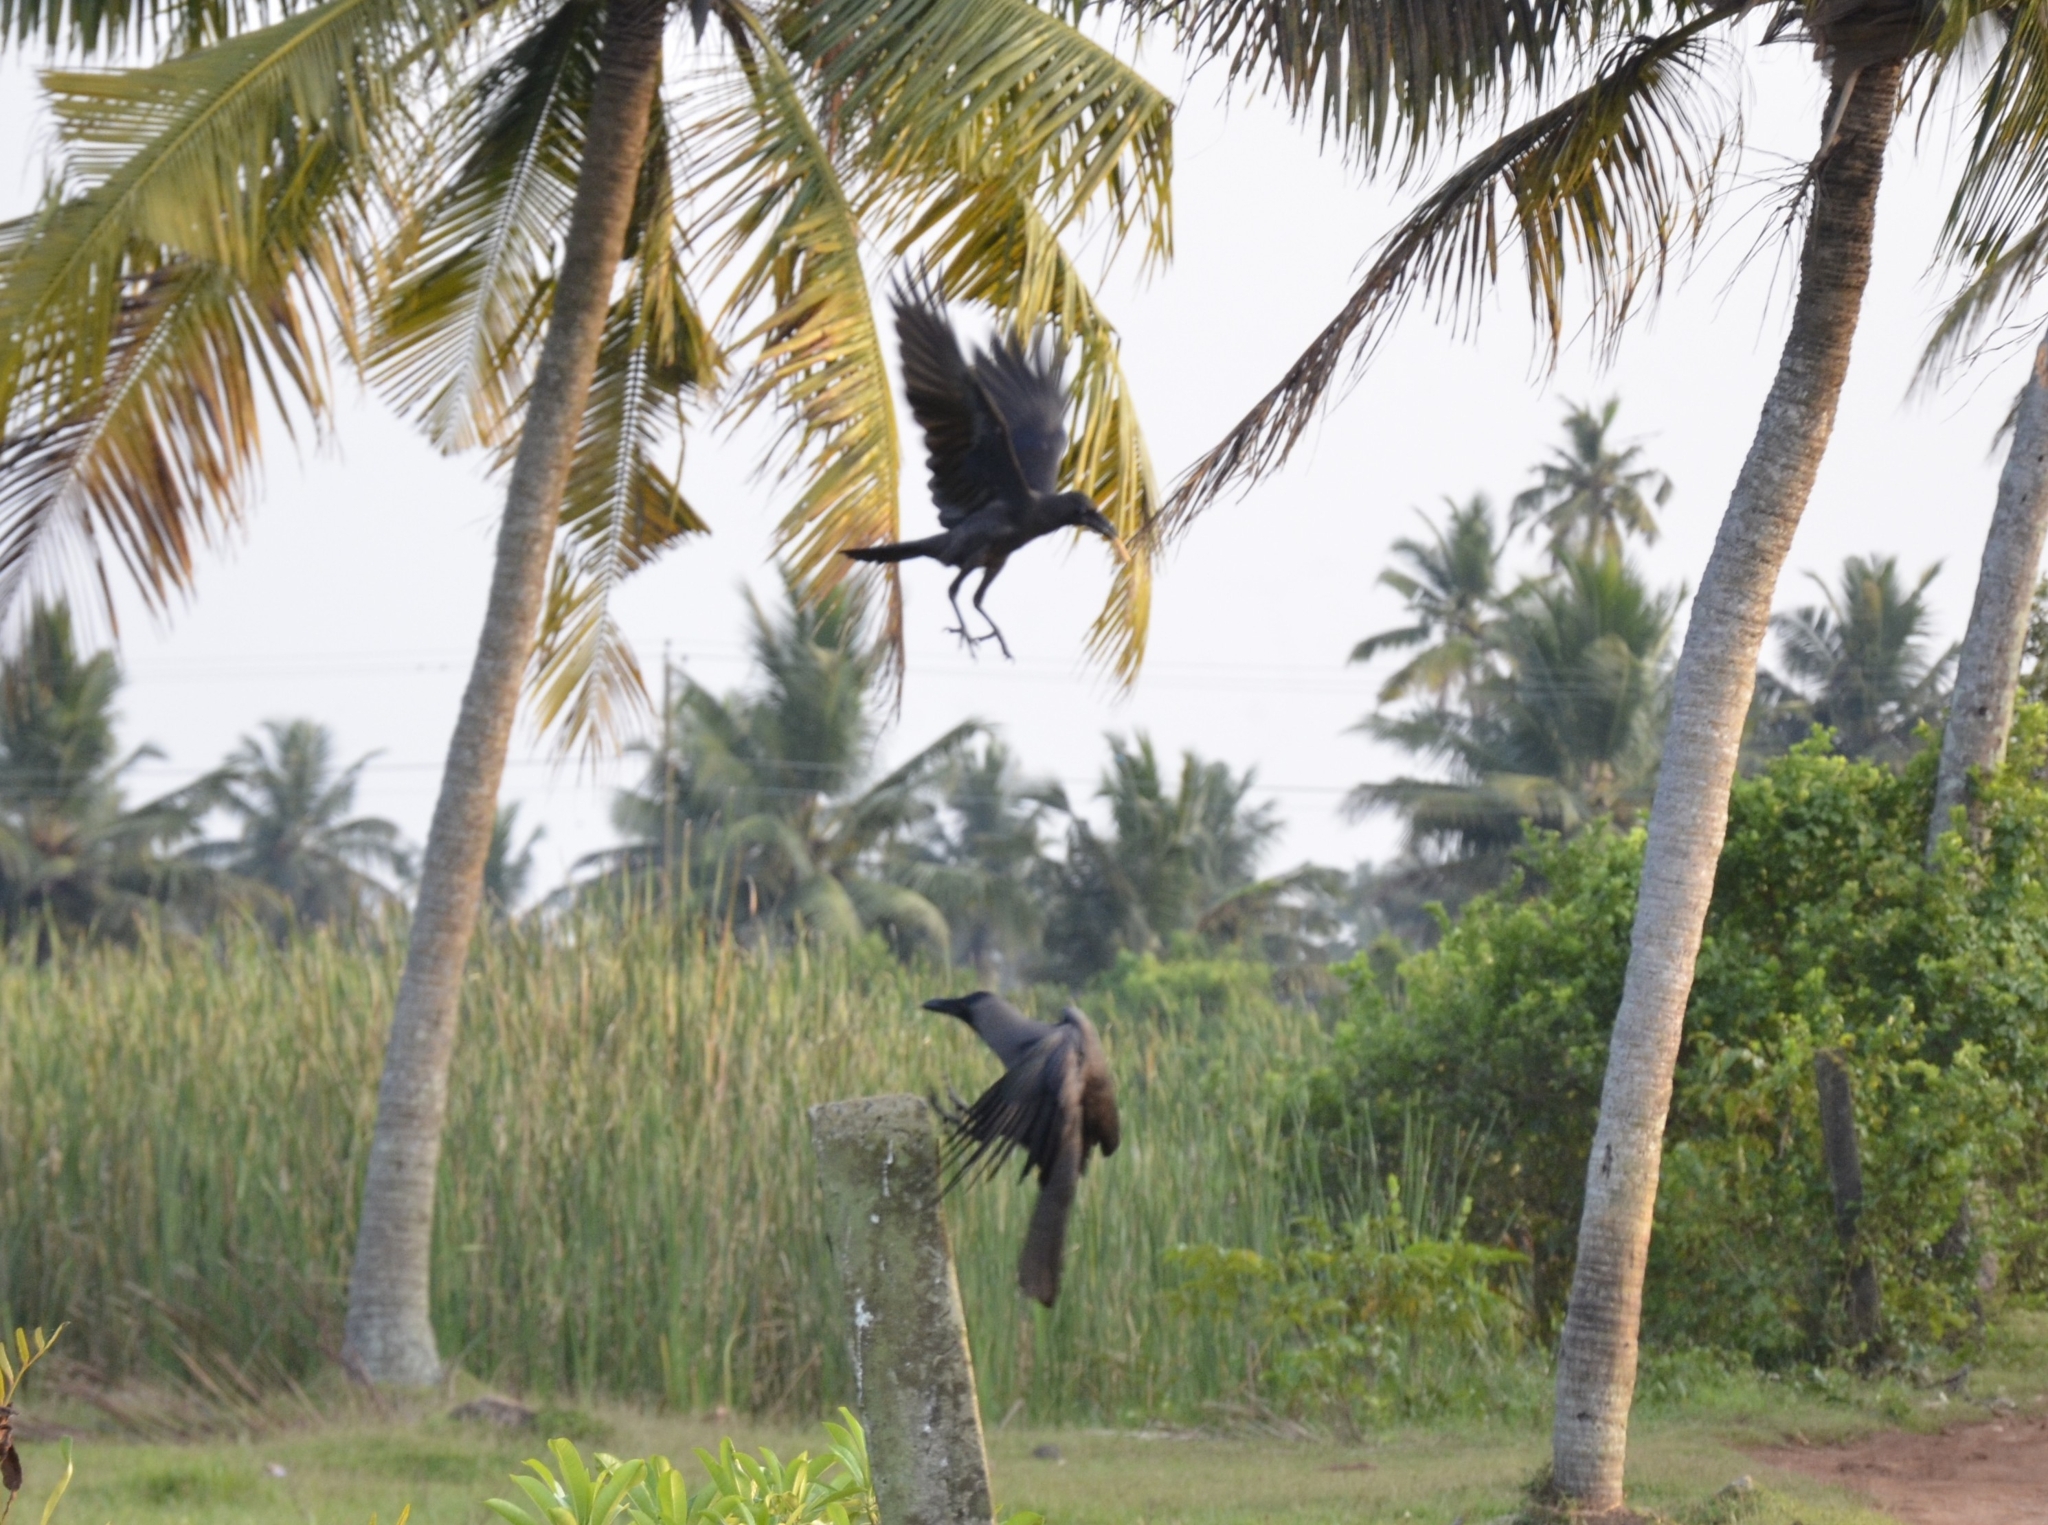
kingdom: Animalia
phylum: Chordata
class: Aves
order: Passeriformes
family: Corvidae
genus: Corvus
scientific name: Corvus splendens
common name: House crow
